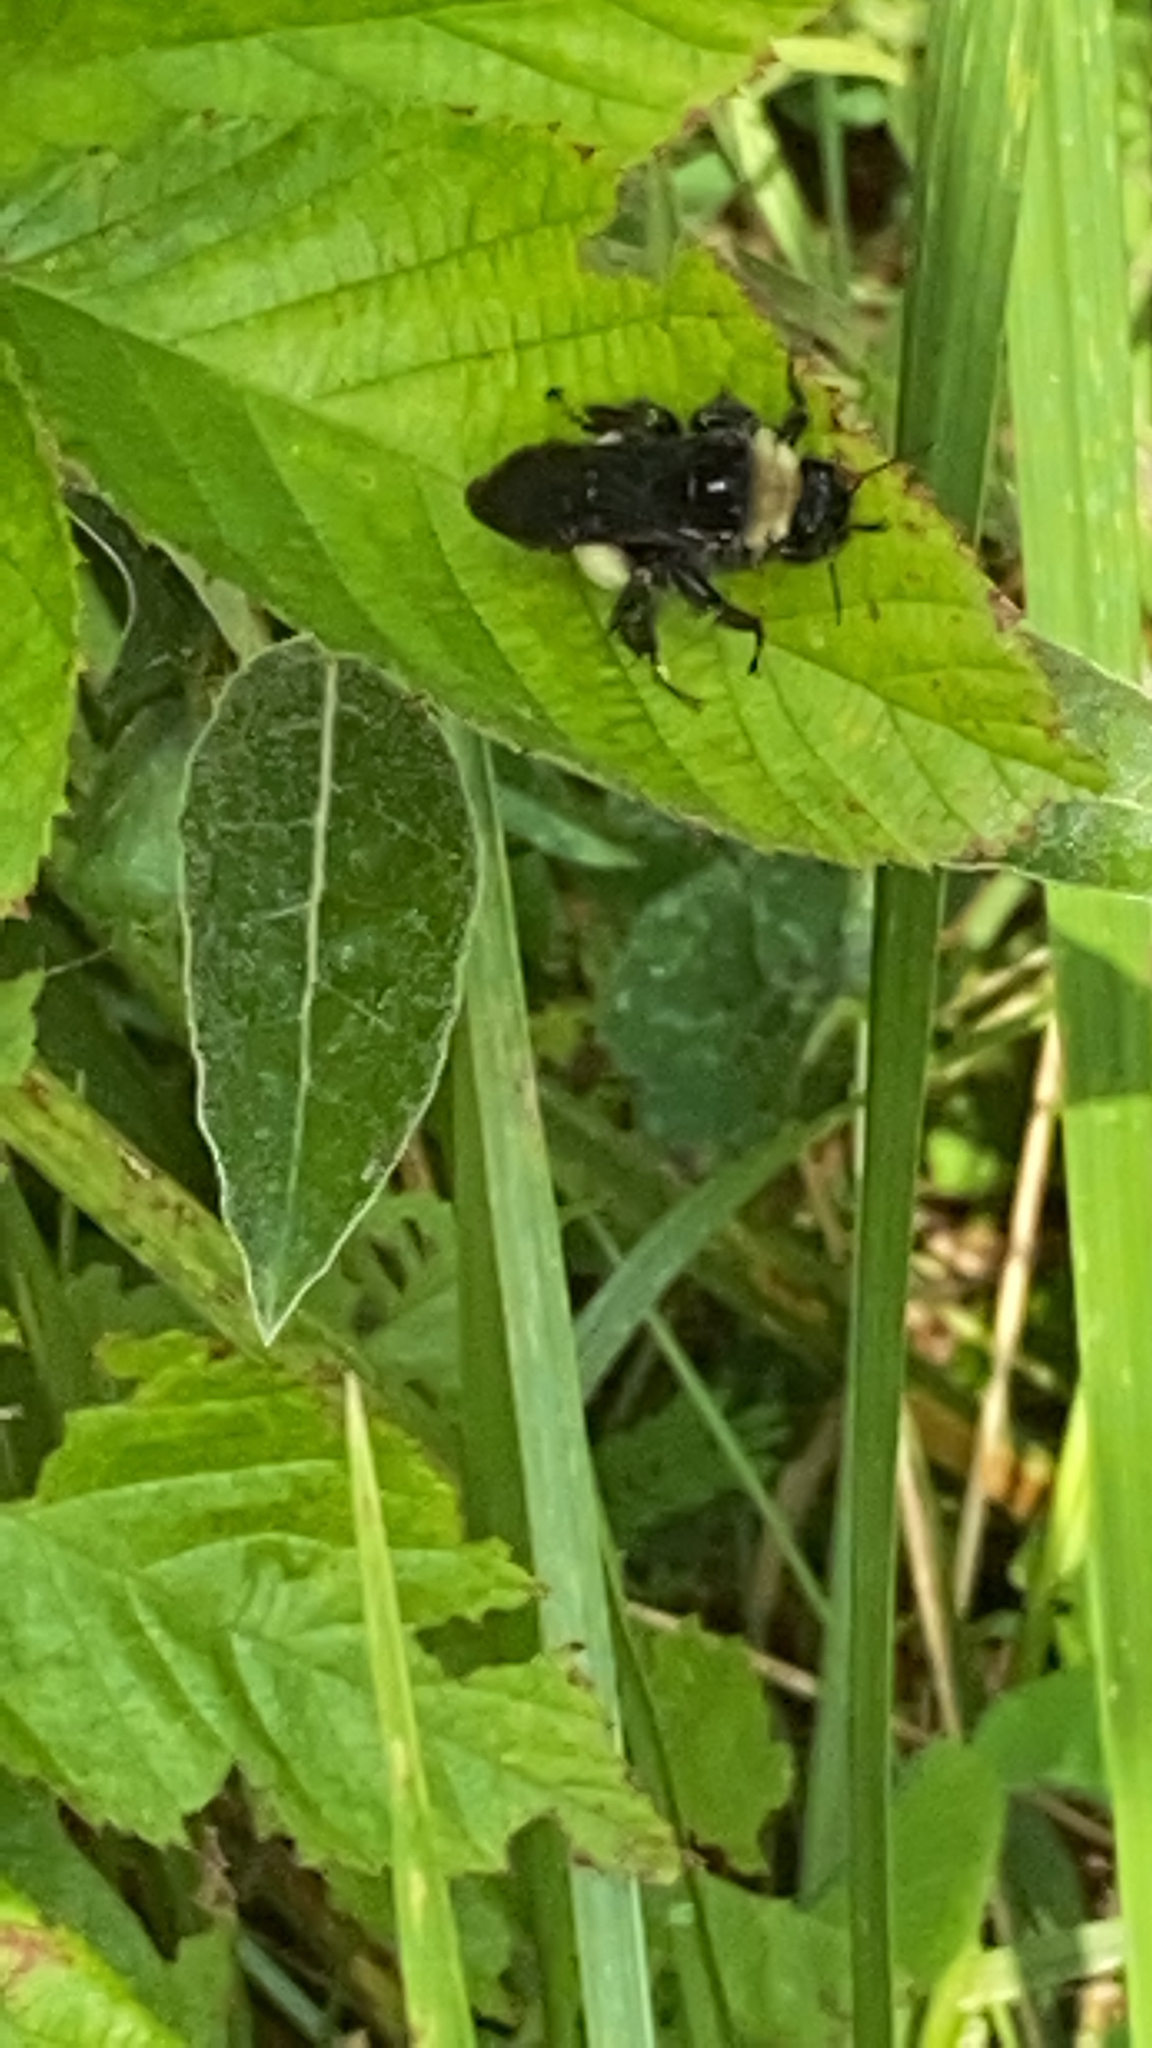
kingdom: Animalia
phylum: Arthropoda
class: Insecta
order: Hymenoptera
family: Apidae
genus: Bombus
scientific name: Bombus pensylvanicus
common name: Bumble bee
